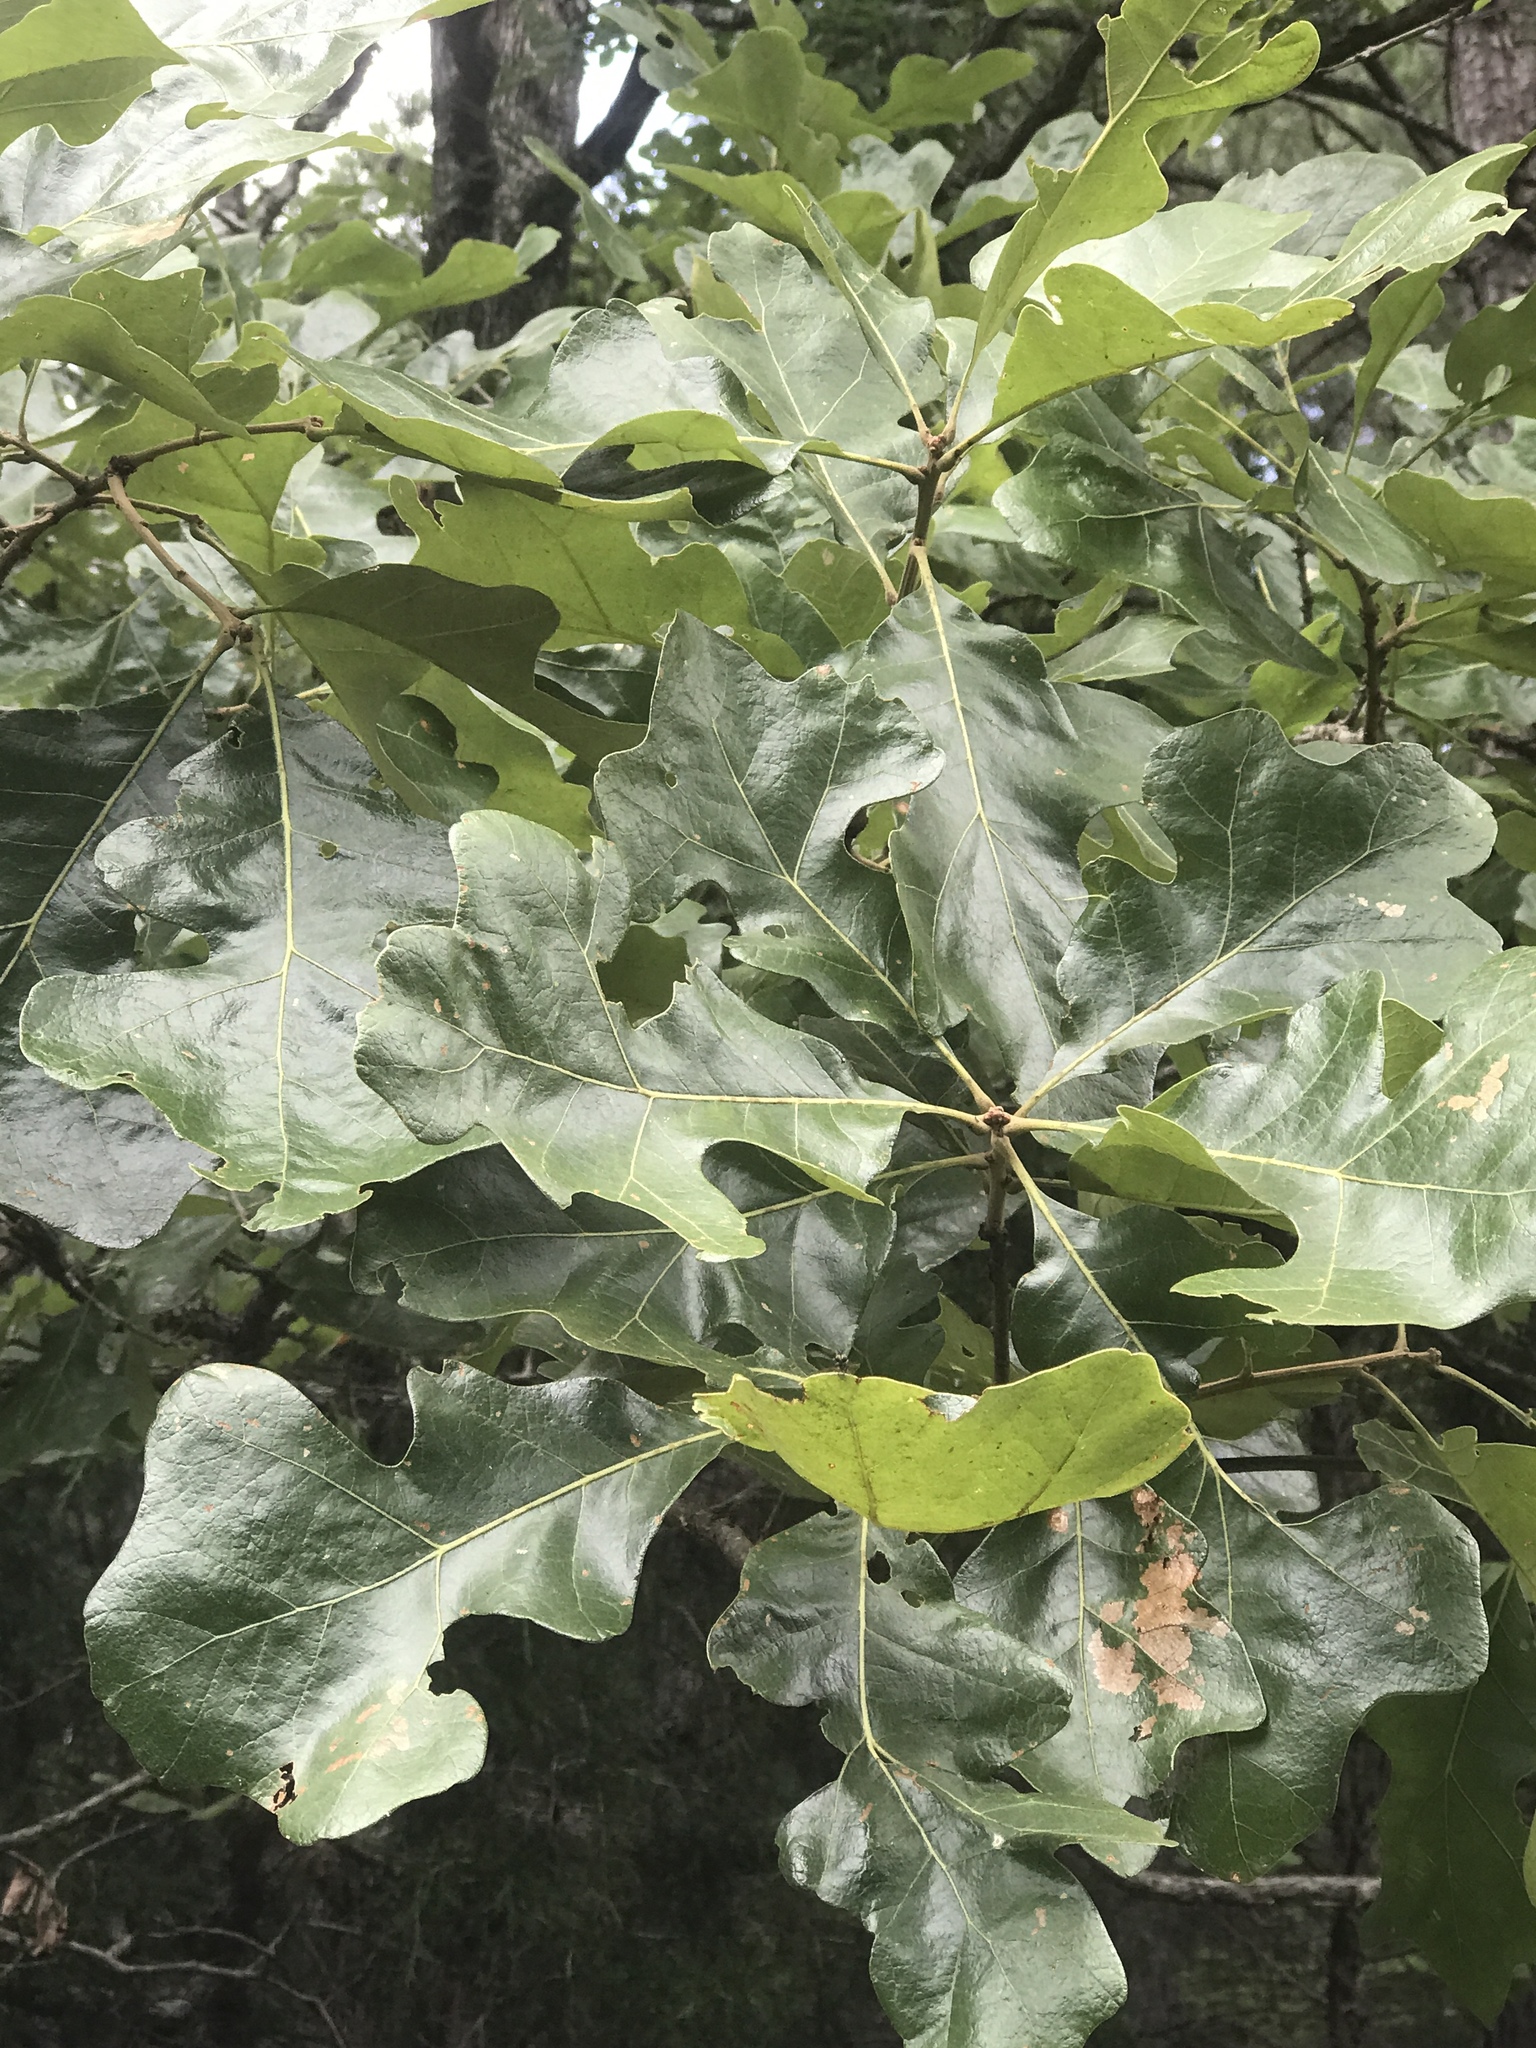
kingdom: Plantae
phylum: Tracheophyta
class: Magnoliopsida
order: Fagales
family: Fagaceae
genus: Quercus
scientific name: Quercus stellata
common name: Post oak
